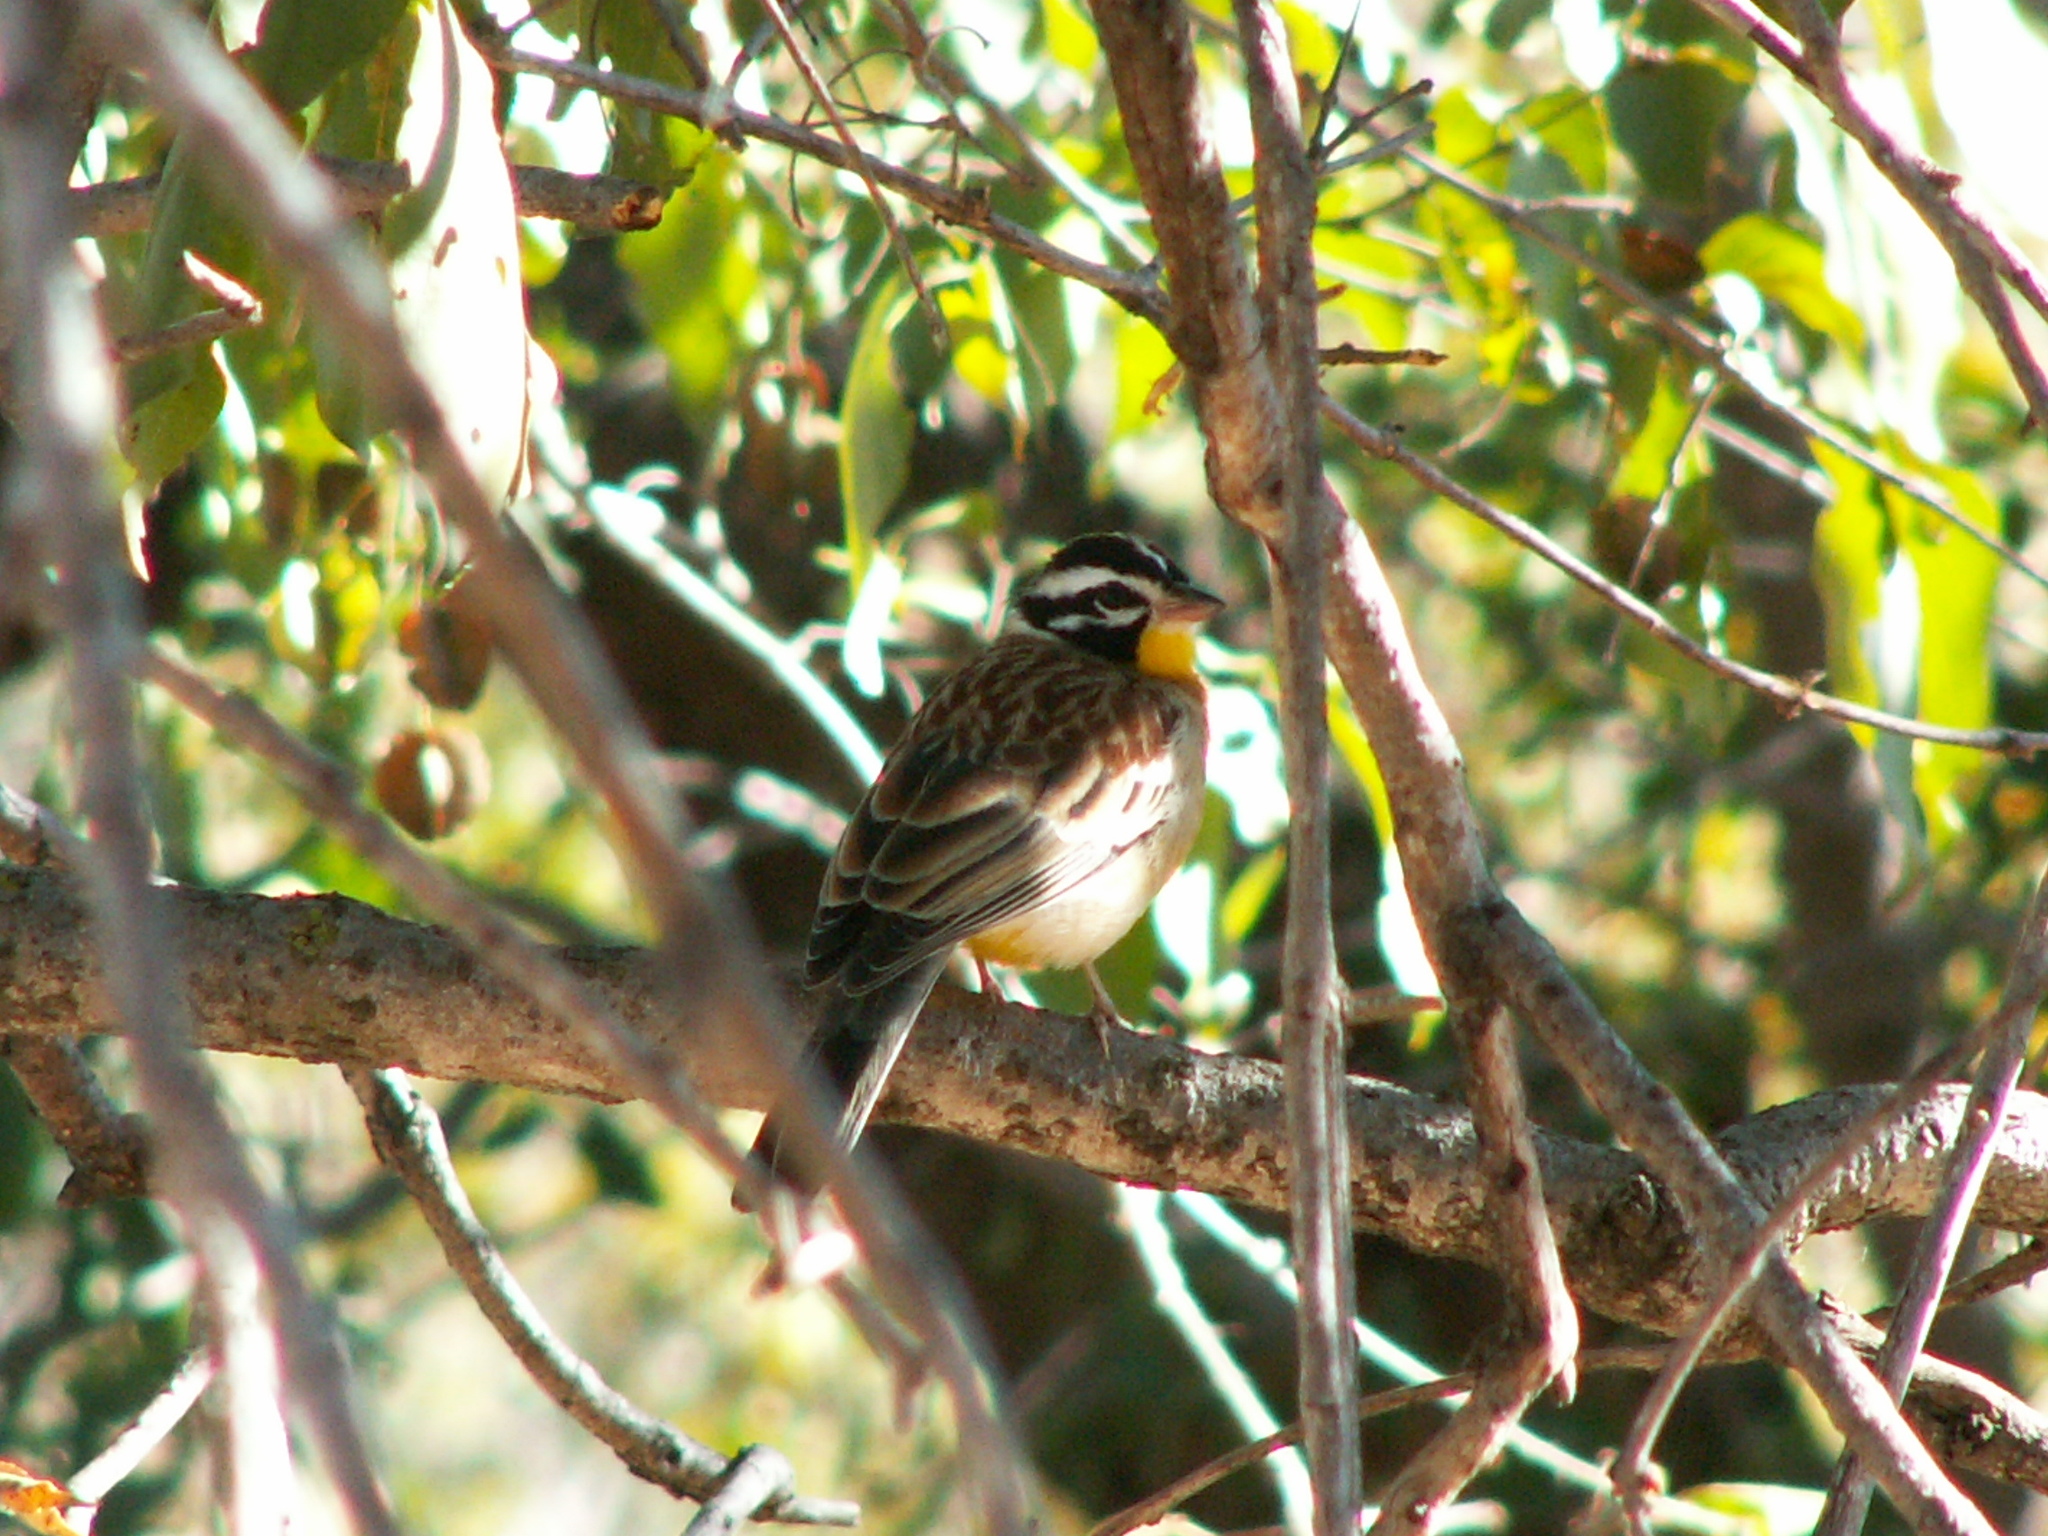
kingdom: Animalia
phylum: Chordata
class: Aves
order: Passeriformes
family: Emberizidae
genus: Emberiza
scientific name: Emberiza flaviventris
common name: Golden-breasted bunting
